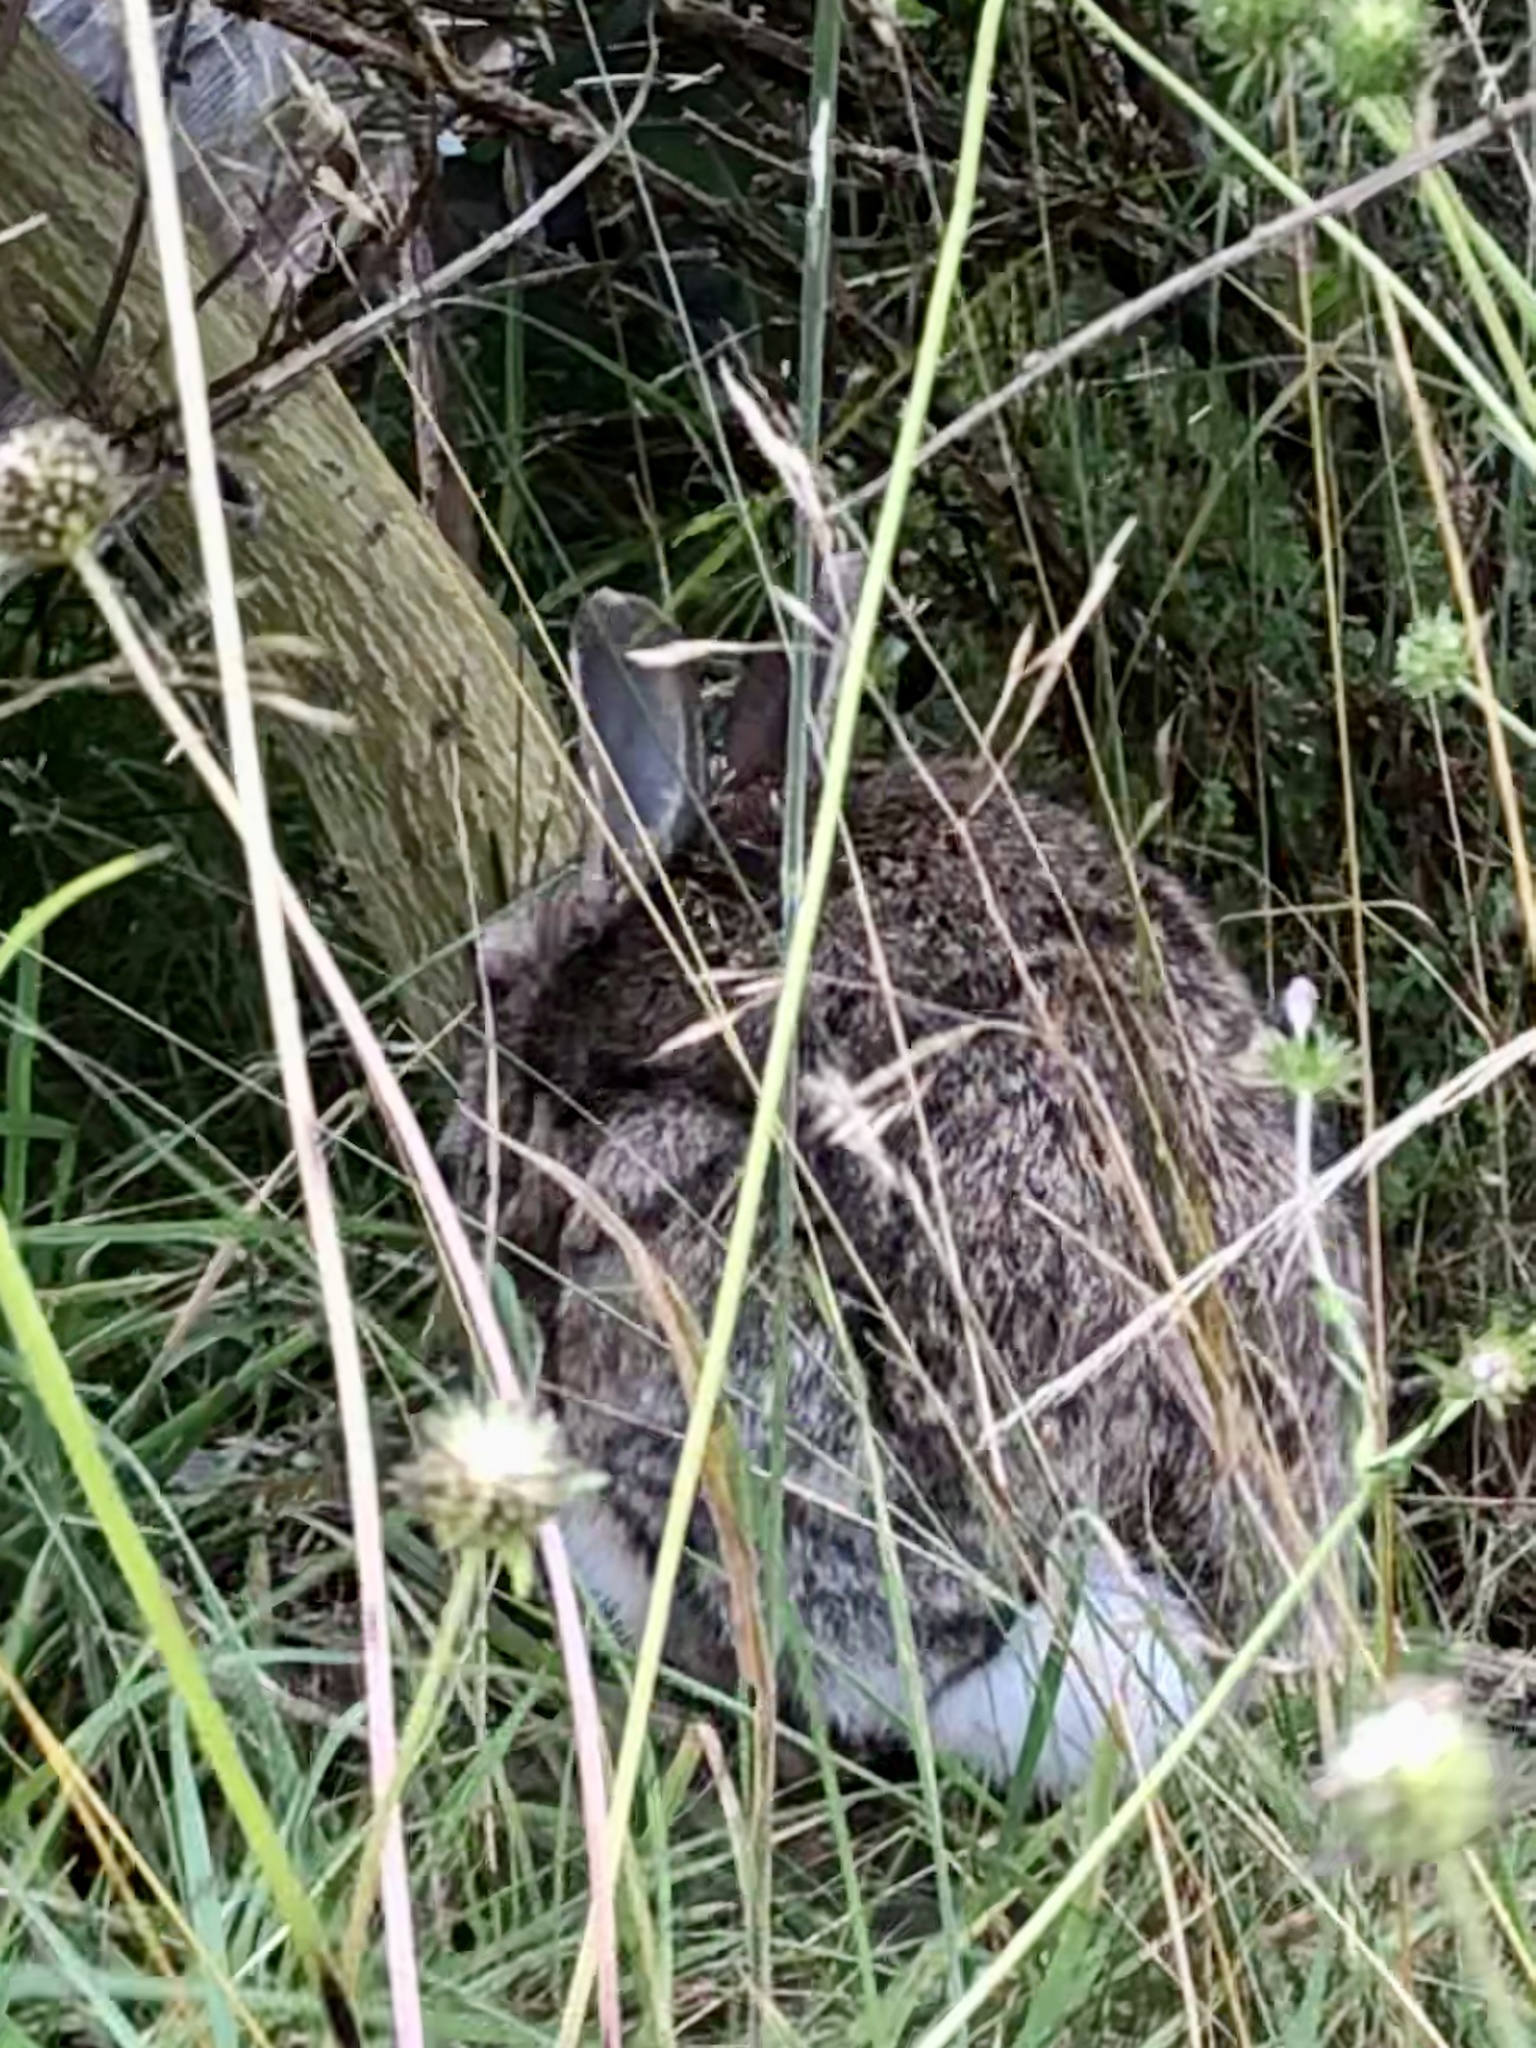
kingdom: Animalia
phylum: Chordata
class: Mammalia
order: Lagomorpha
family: Leporidae
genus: Oryctolagus
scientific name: Oryctolagus cuniculus
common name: European rabbit
